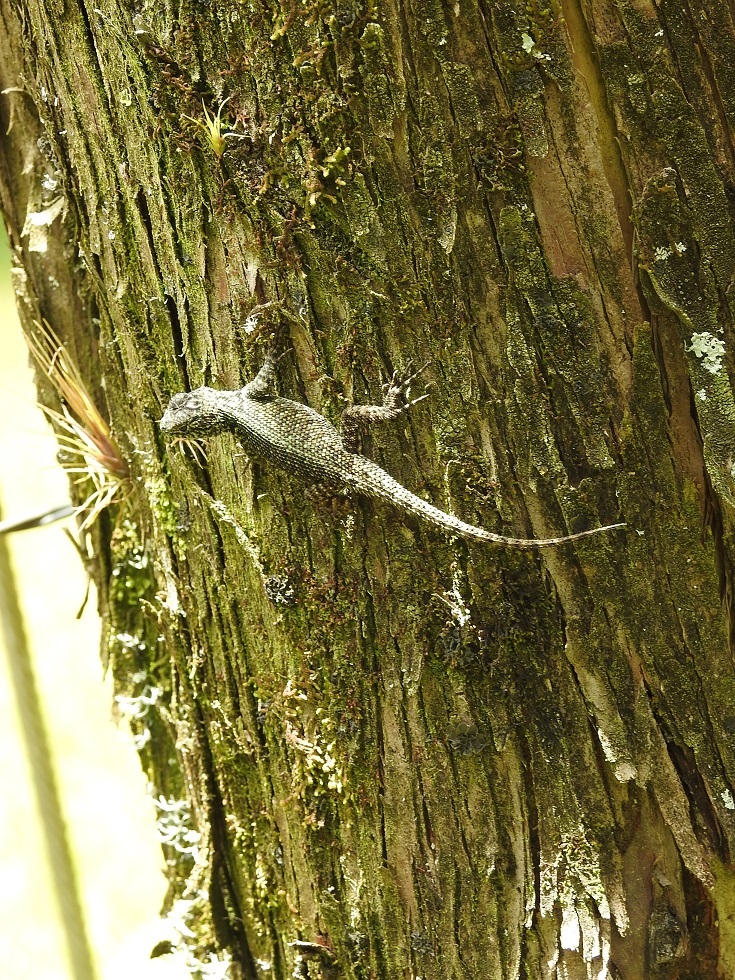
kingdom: Animalia
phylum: Chordata
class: Squamata
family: Phrynosomatidae
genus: Sceloporus
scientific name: Sceloporus taeniocnemis
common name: Guatemalan emerald spiny lizard
